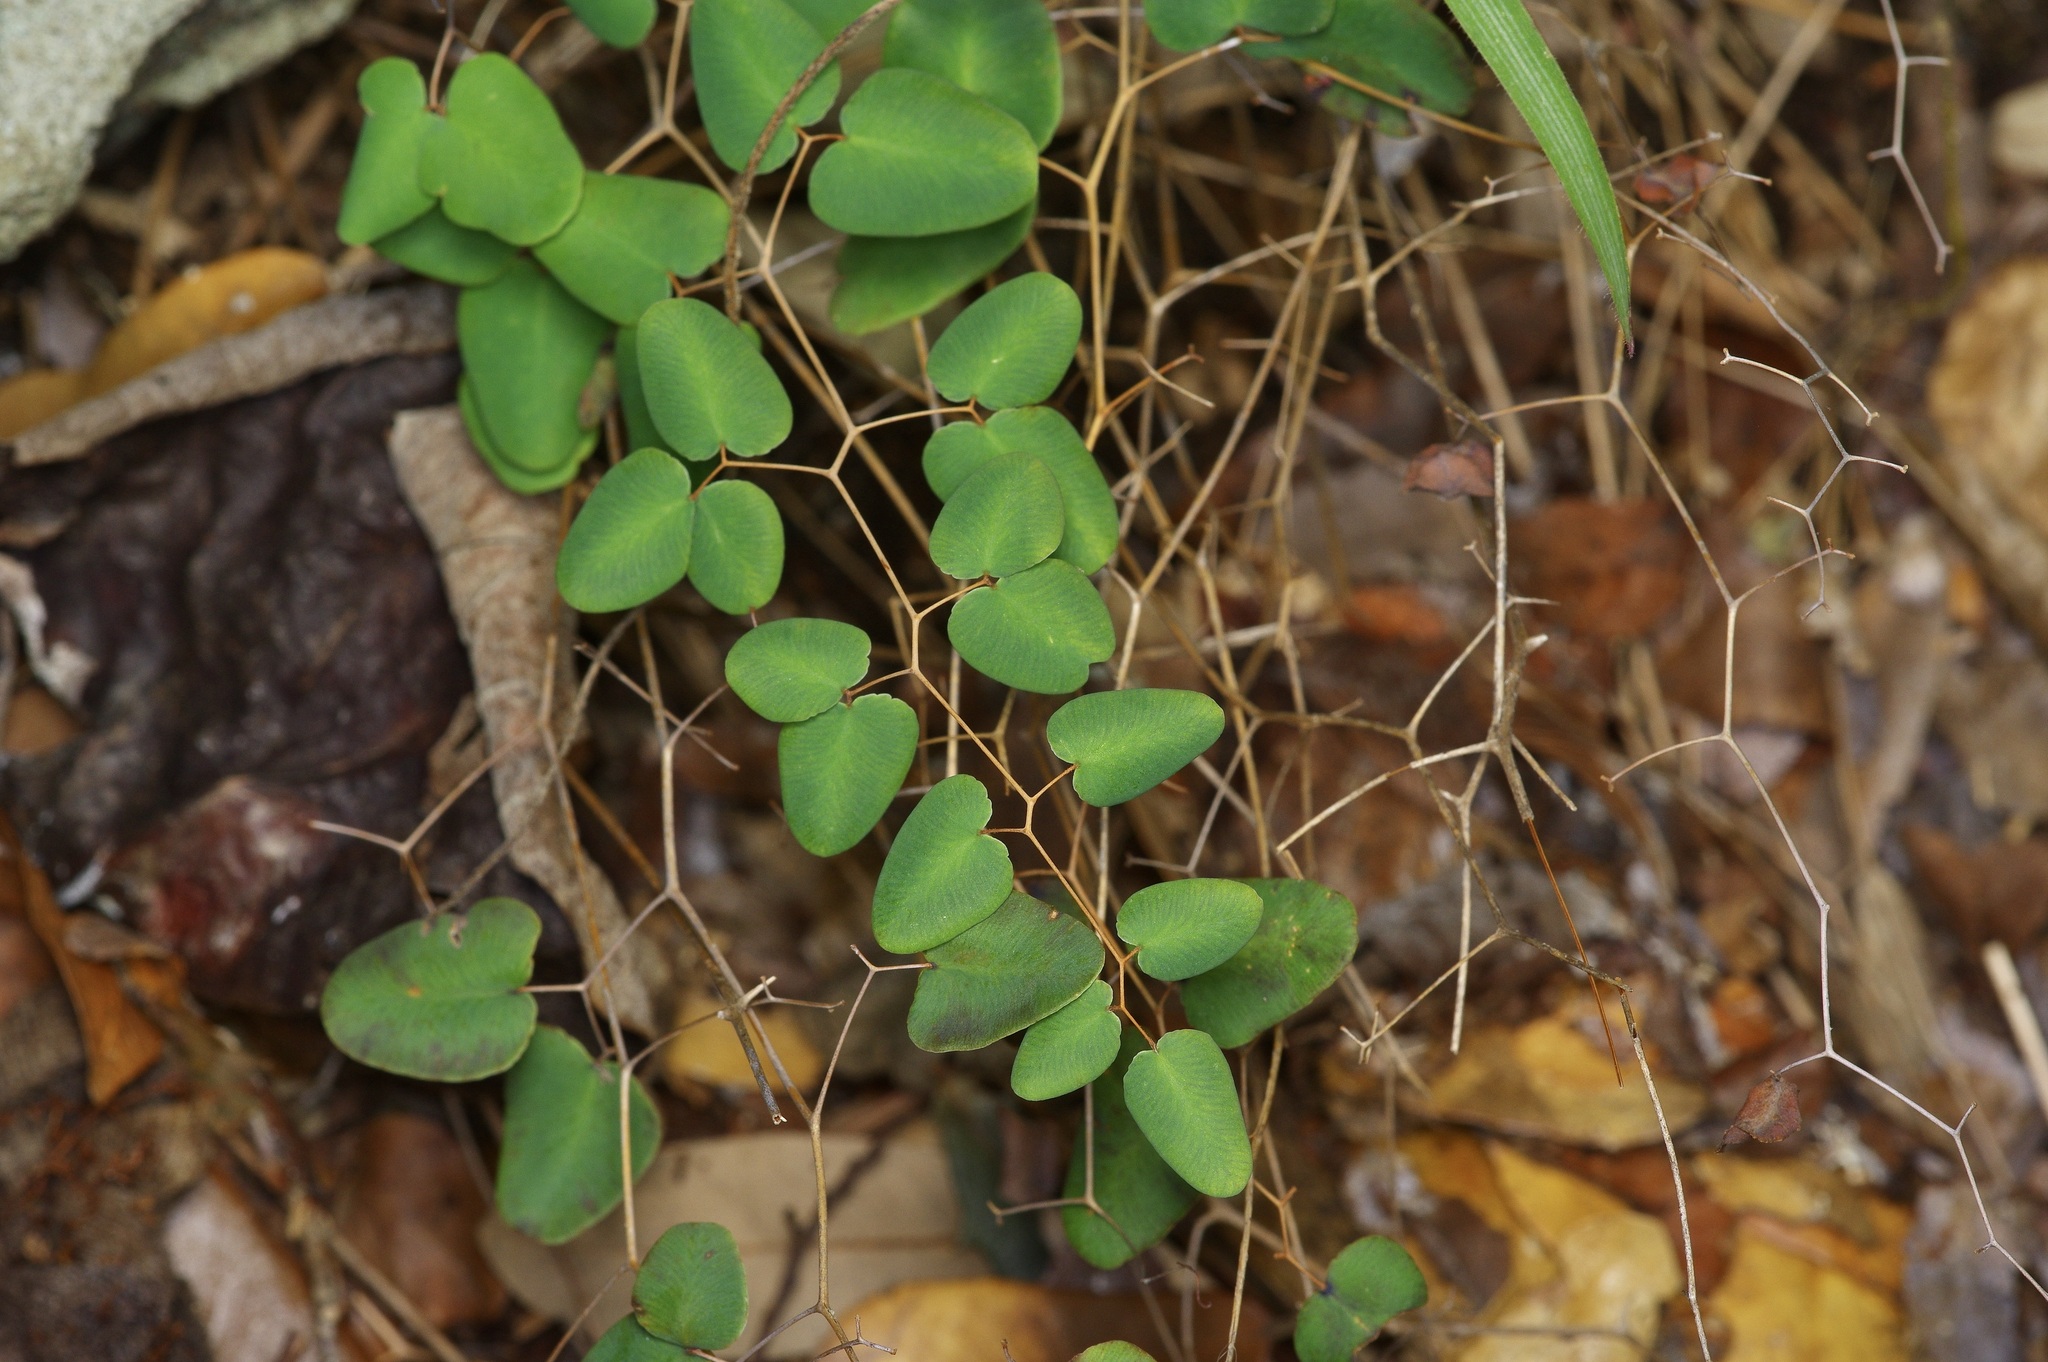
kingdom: Plantae
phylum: Tracheophyta
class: Polypodiopsida
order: Polypodiales
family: Pteridaceae
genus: Pellaea
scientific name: Pellaea ovata
